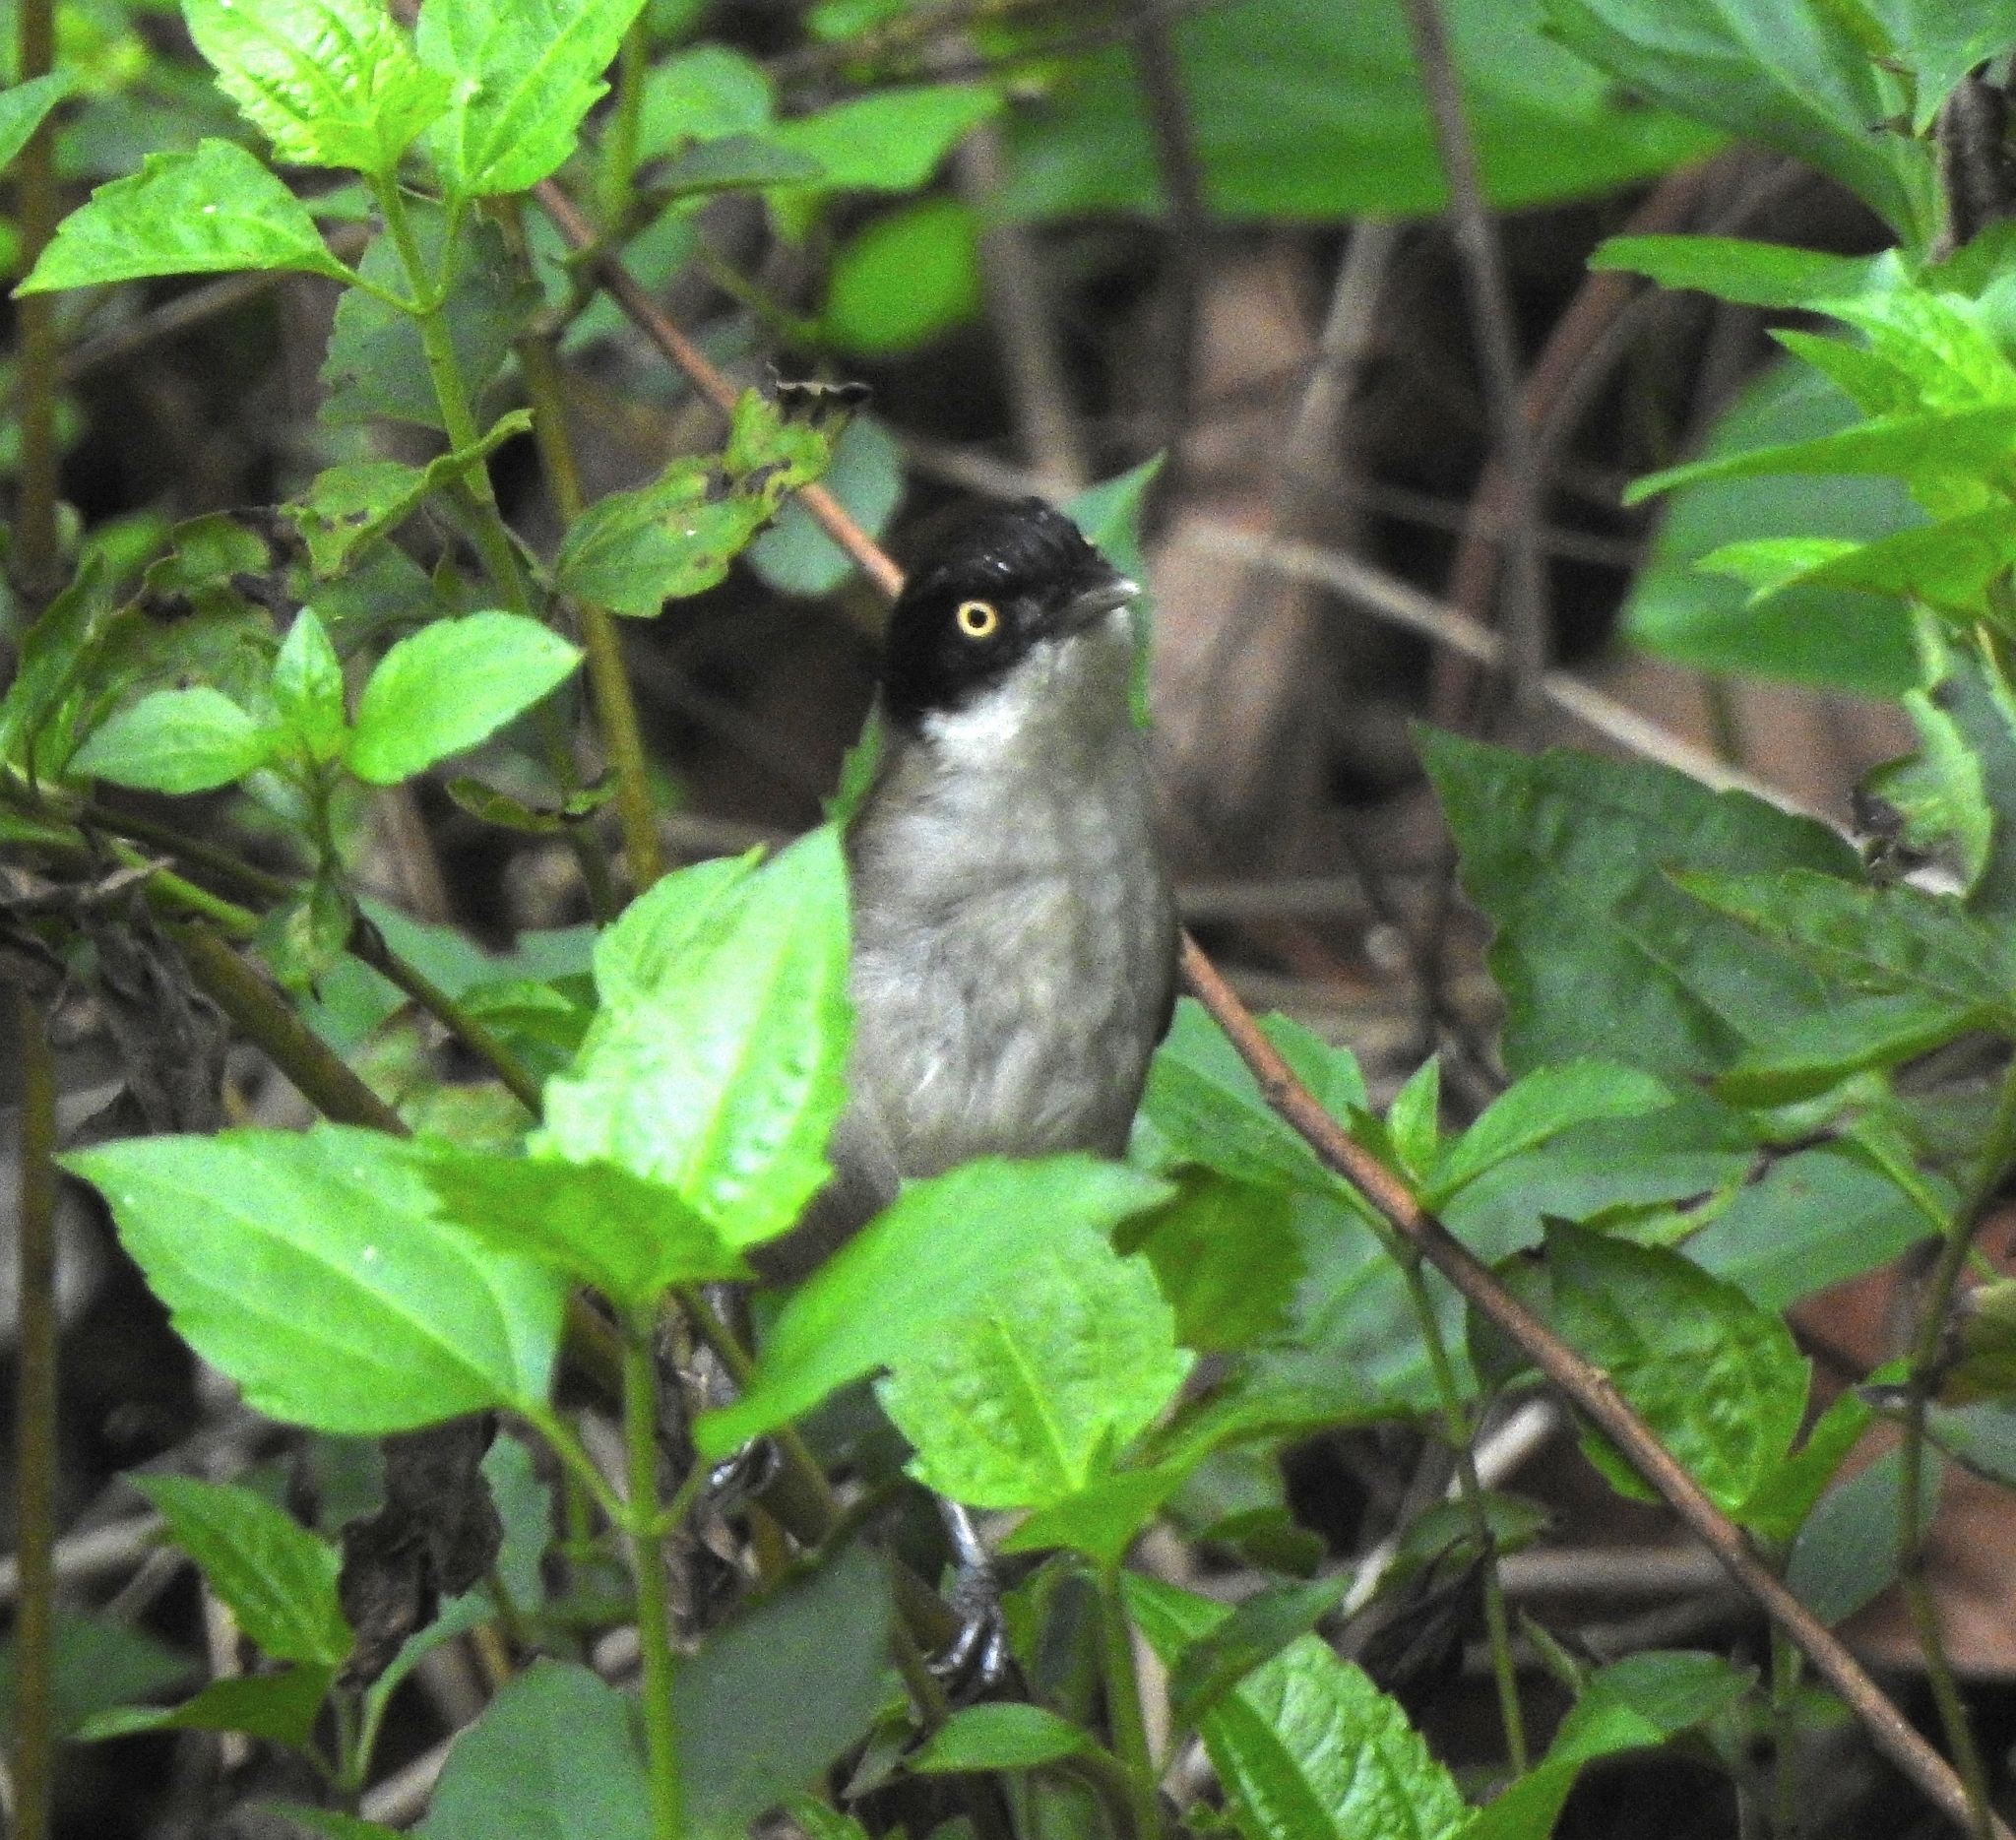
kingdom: Animalia
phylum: Chordata
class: Aves
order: Passeriformes
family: Timaliidae
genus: Rhopocichla
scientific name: Rhopocichla atriceps
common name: Dark-fronted babbler
